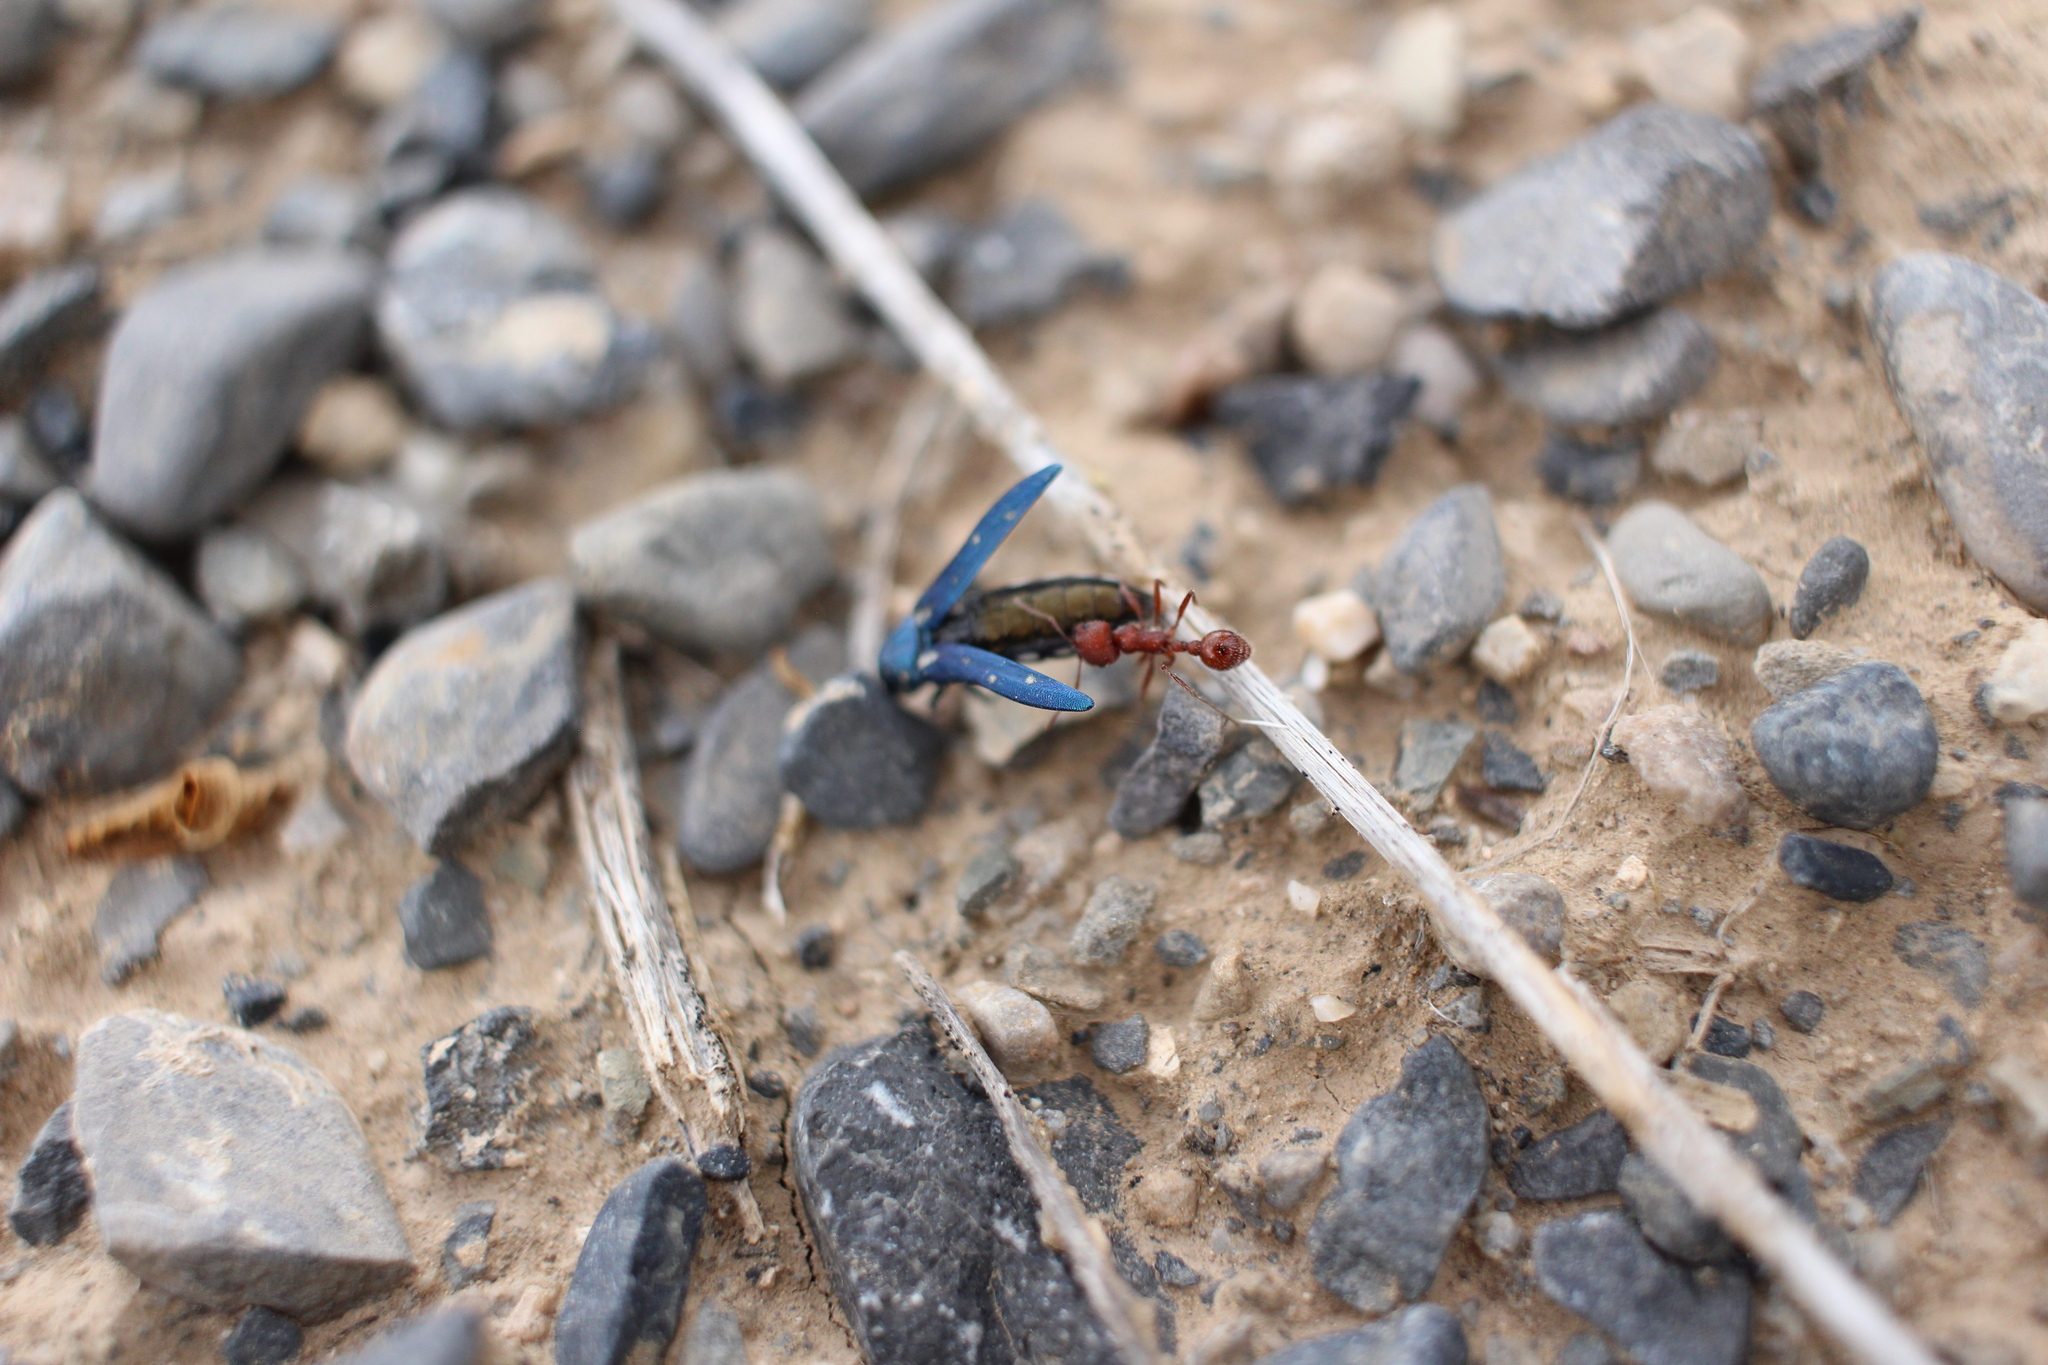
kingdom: Animalia
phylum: Arthropoda
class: Insecta
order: Coleoptera
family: Buprestidae
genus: Agrilus
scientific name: Agrilus walsinghami
